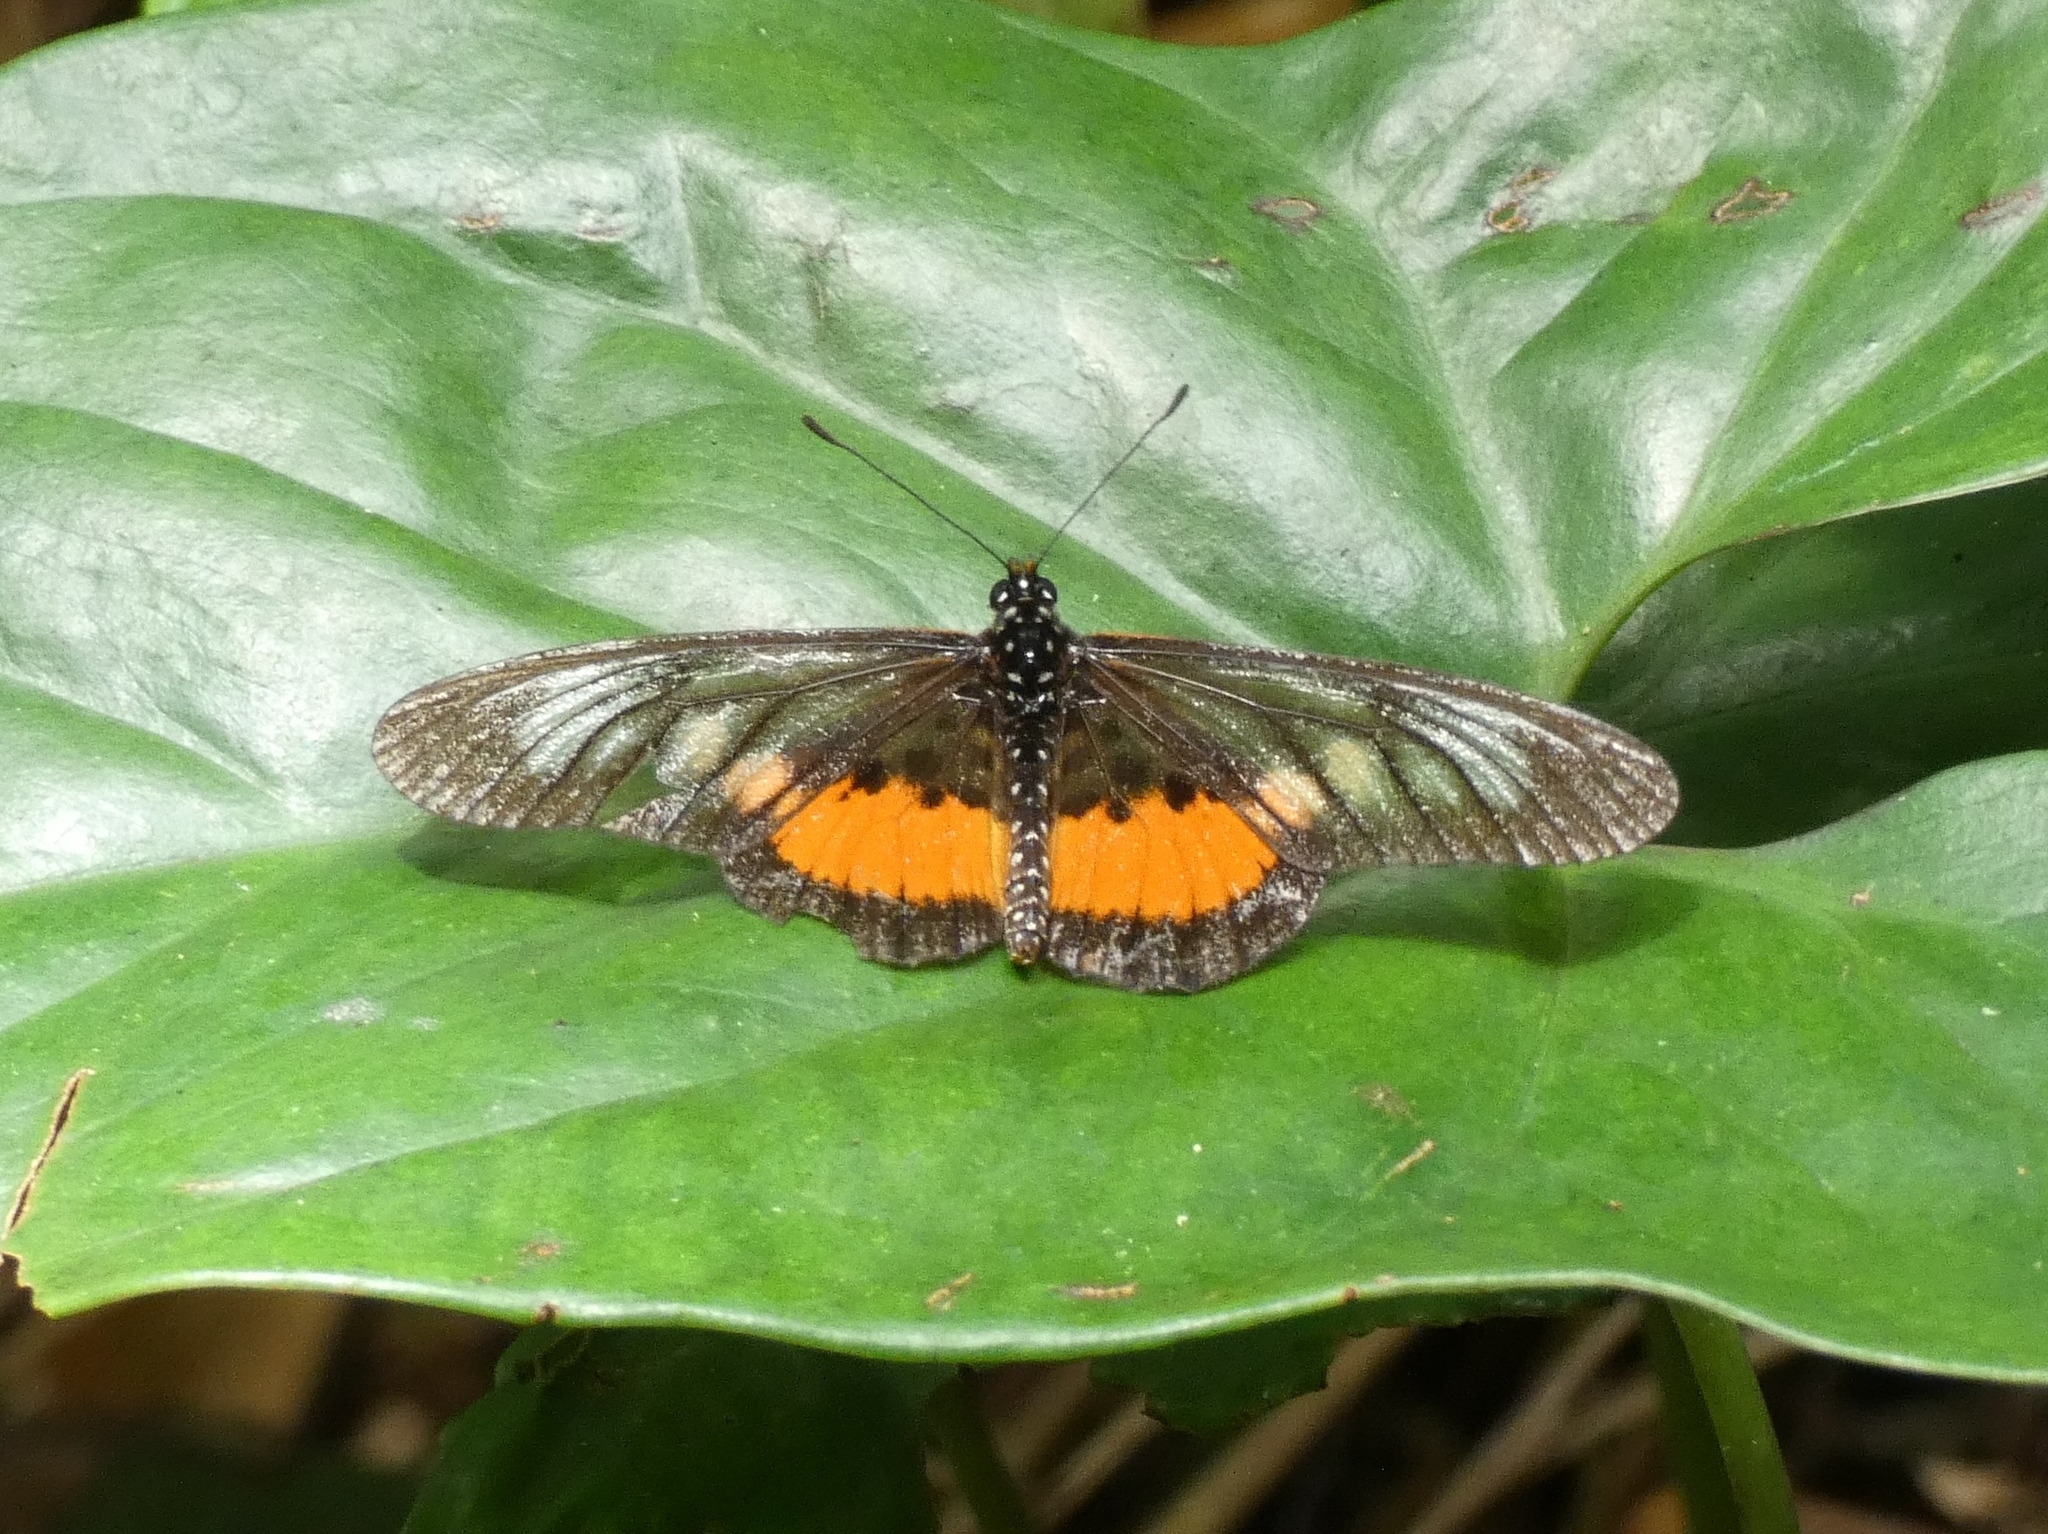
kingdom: Animalia
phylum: Arthropoda
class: Insecta
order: Lepidoptera
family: Nymphalidae
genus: Acraea
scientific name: Acraea
